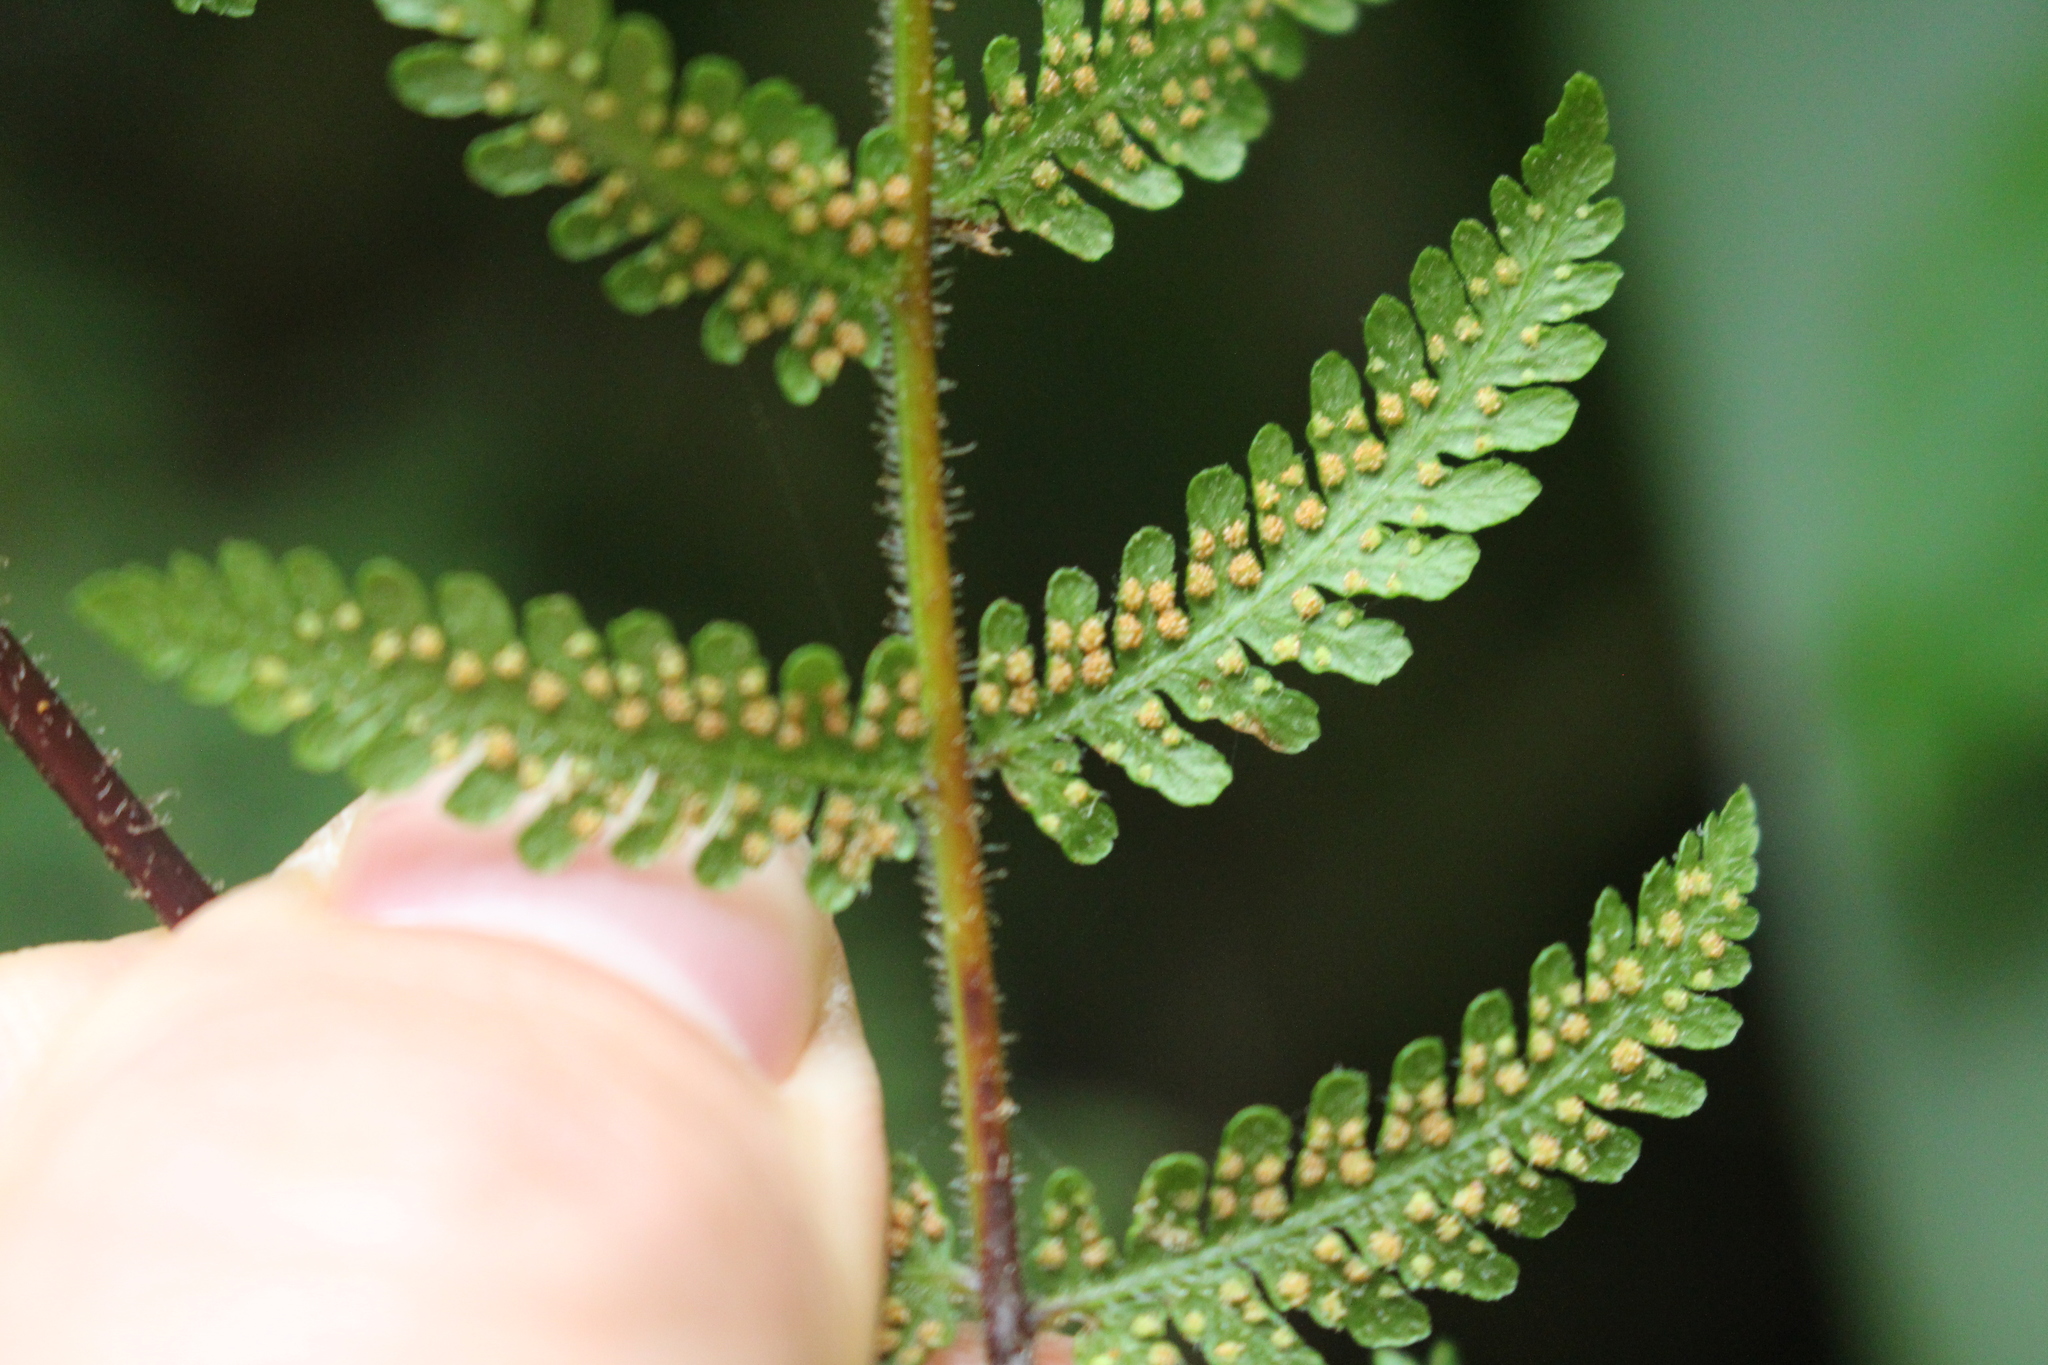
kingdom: Plantae
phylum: Tracheophyta
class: Polypodiopsida
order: Polypodiales
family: Dennstaedtiaceae
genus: Hypolepis
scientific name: Hypolepis ambigua
